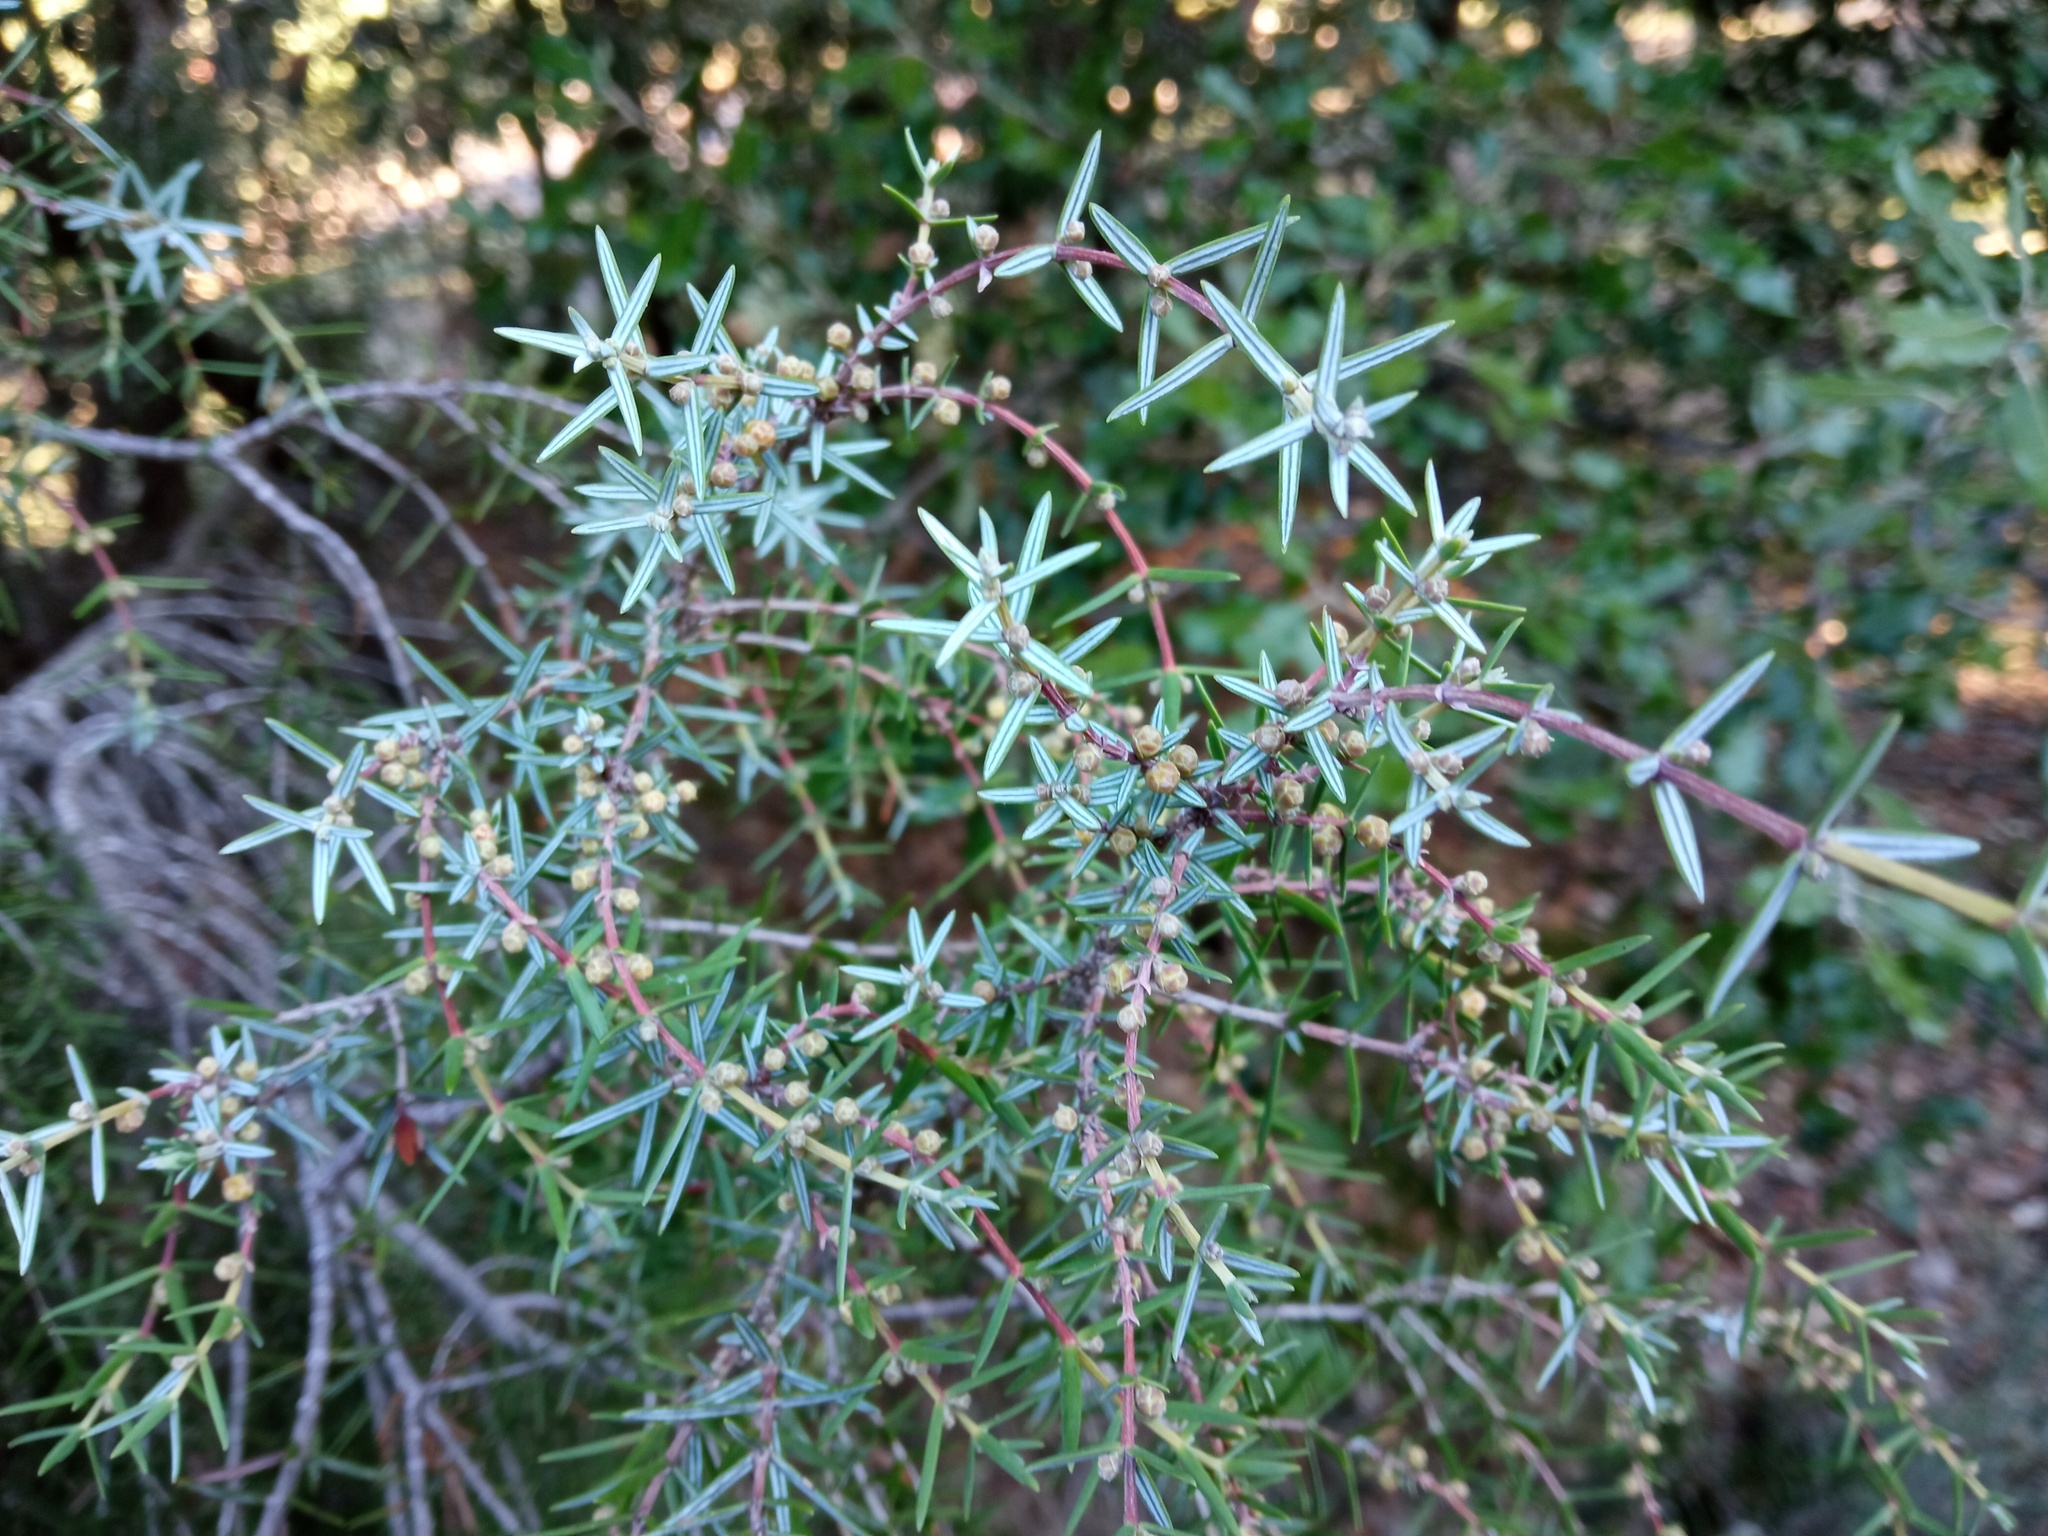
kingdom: Plantae
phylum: Tracheophyta
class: Pinopsida
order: Pinales
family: Cupressaceae
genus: Juniperus
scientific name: Juniperus oxycedrus
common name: Prickly juniper
